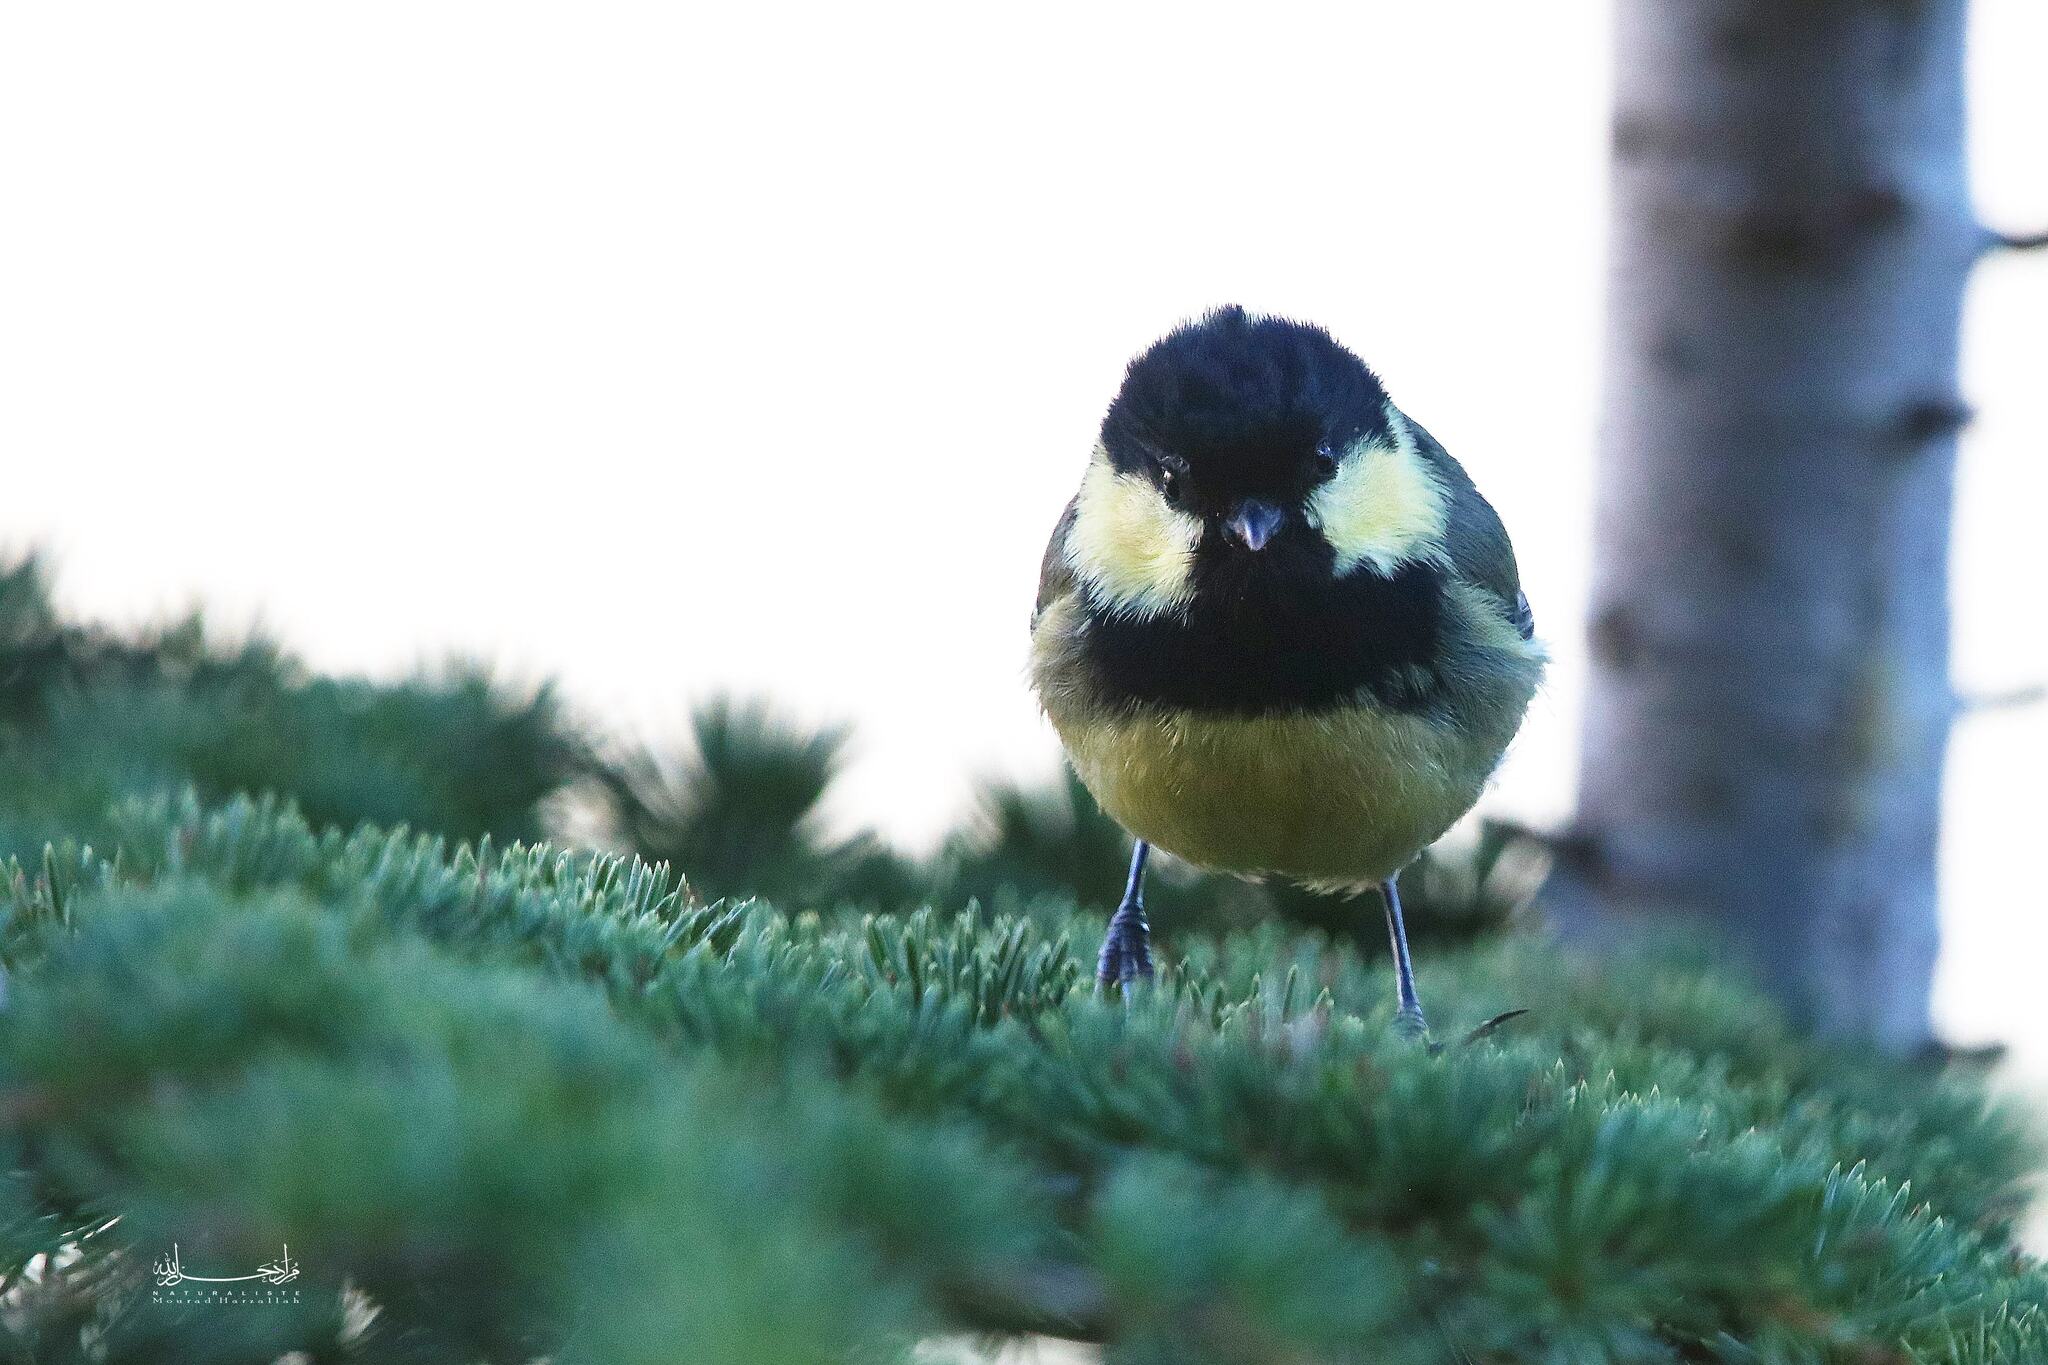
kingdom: Animalia
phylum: Chordata
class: Aves
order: Passeriformes
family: Paridae
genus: Periparus
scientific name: Periparus ater
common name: Coal tit
